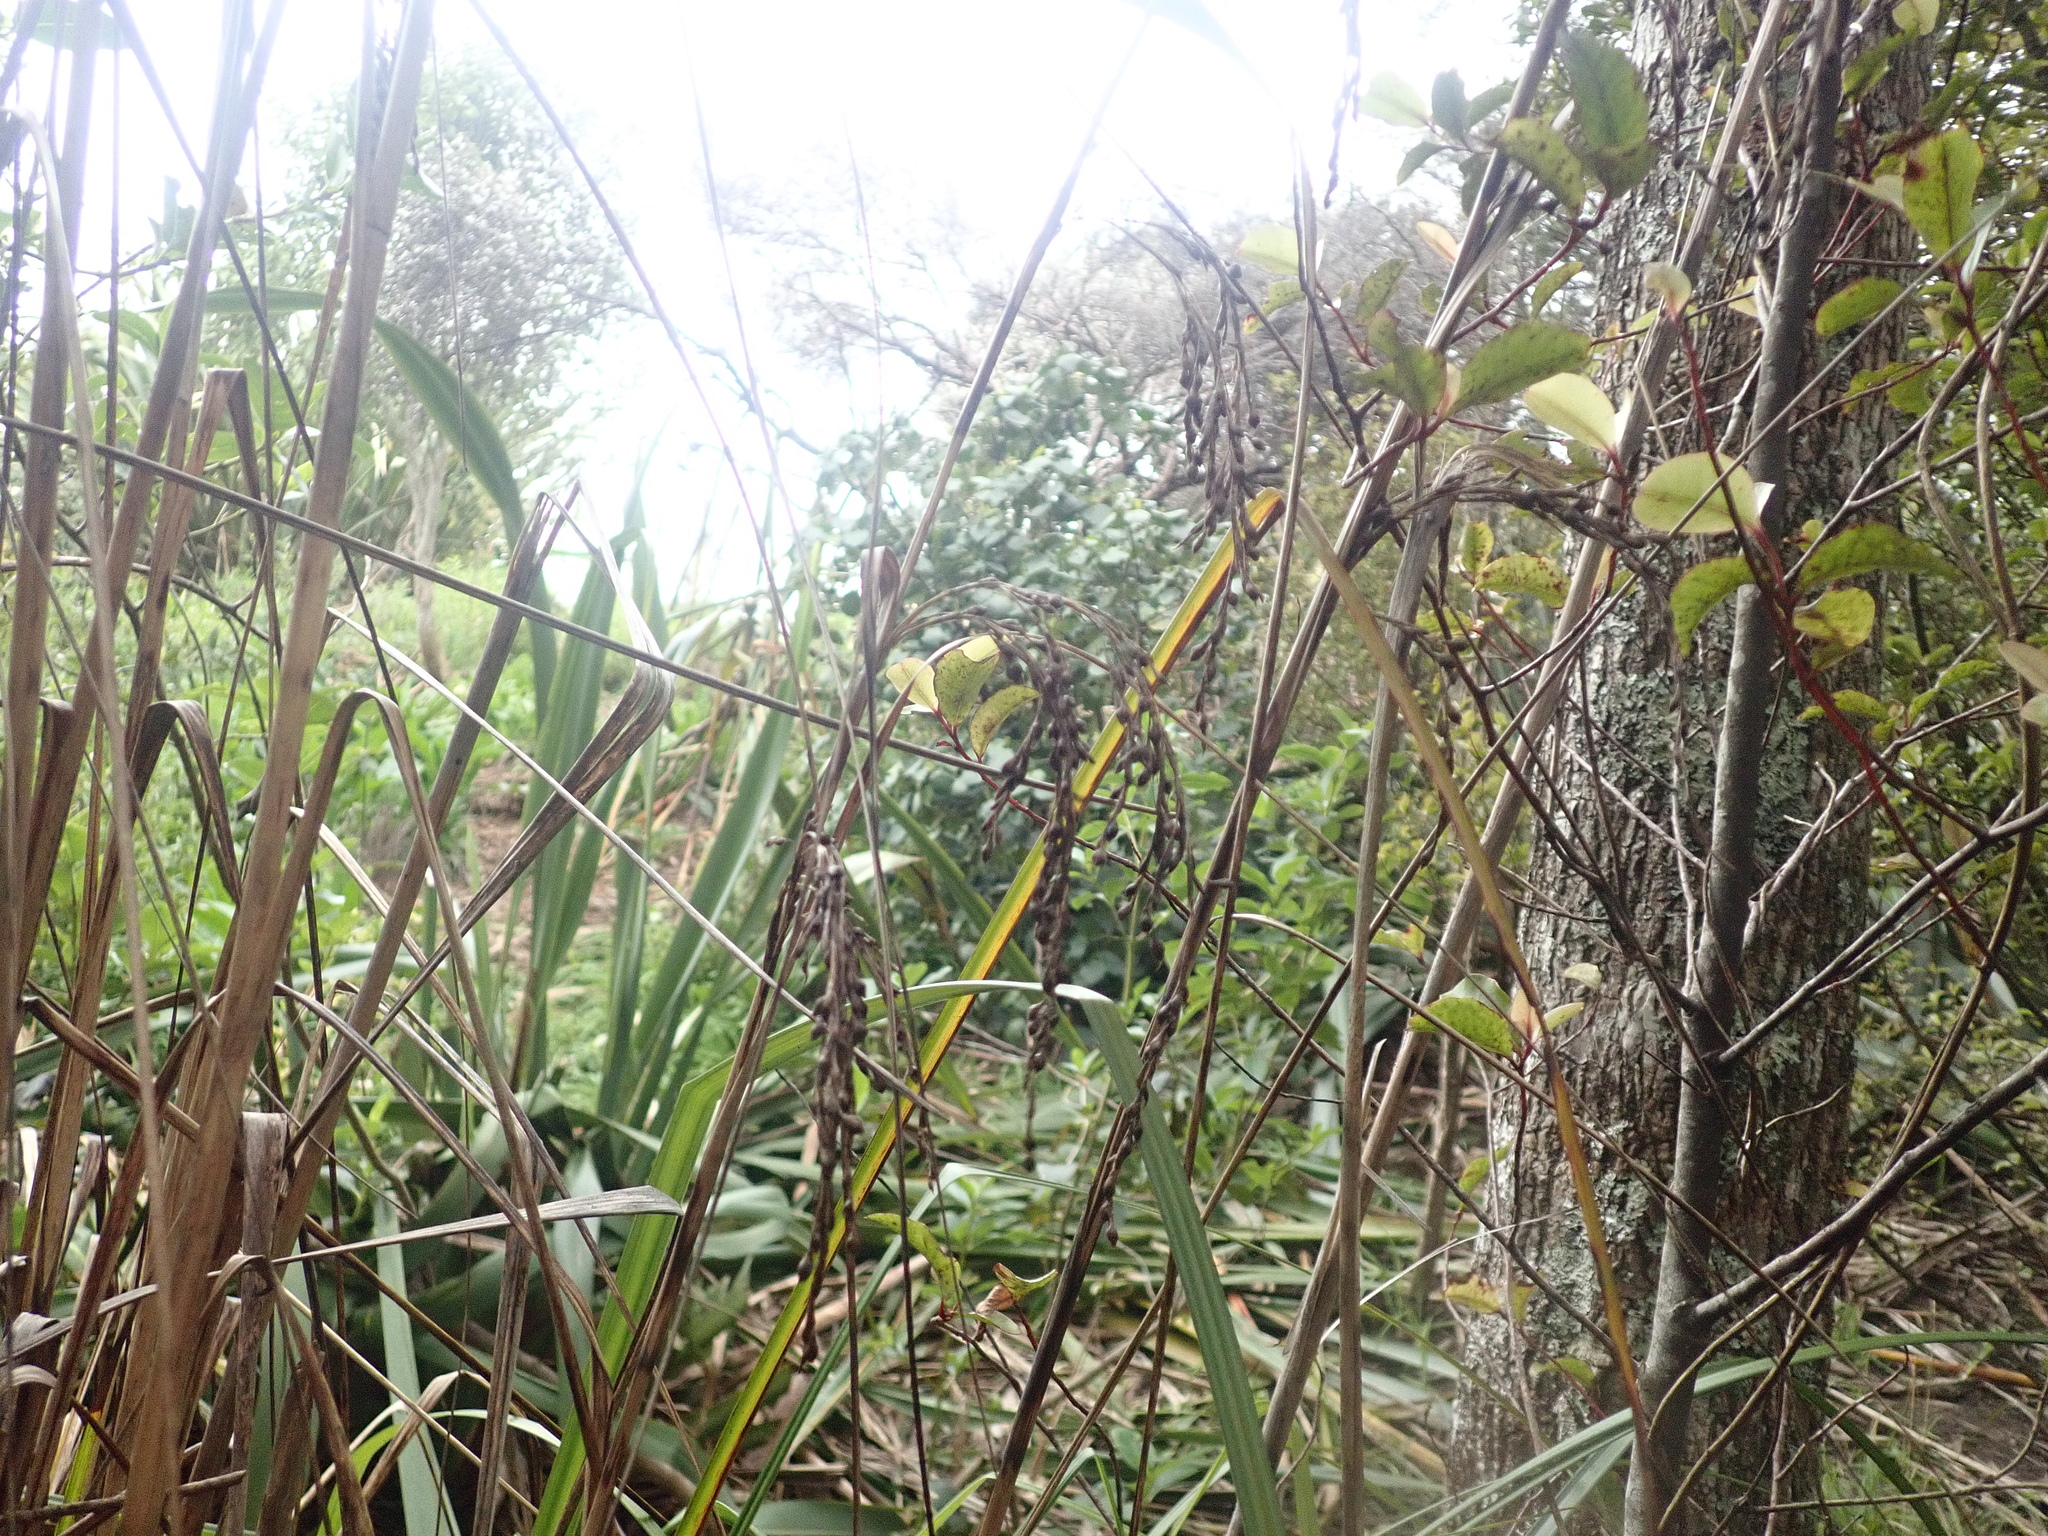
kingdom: Plantae
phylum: Tracheophyta
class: Liliopsida
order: Poales
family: Cyperaceae
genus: Gahnia
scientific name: Gahnia xanthocarpa
